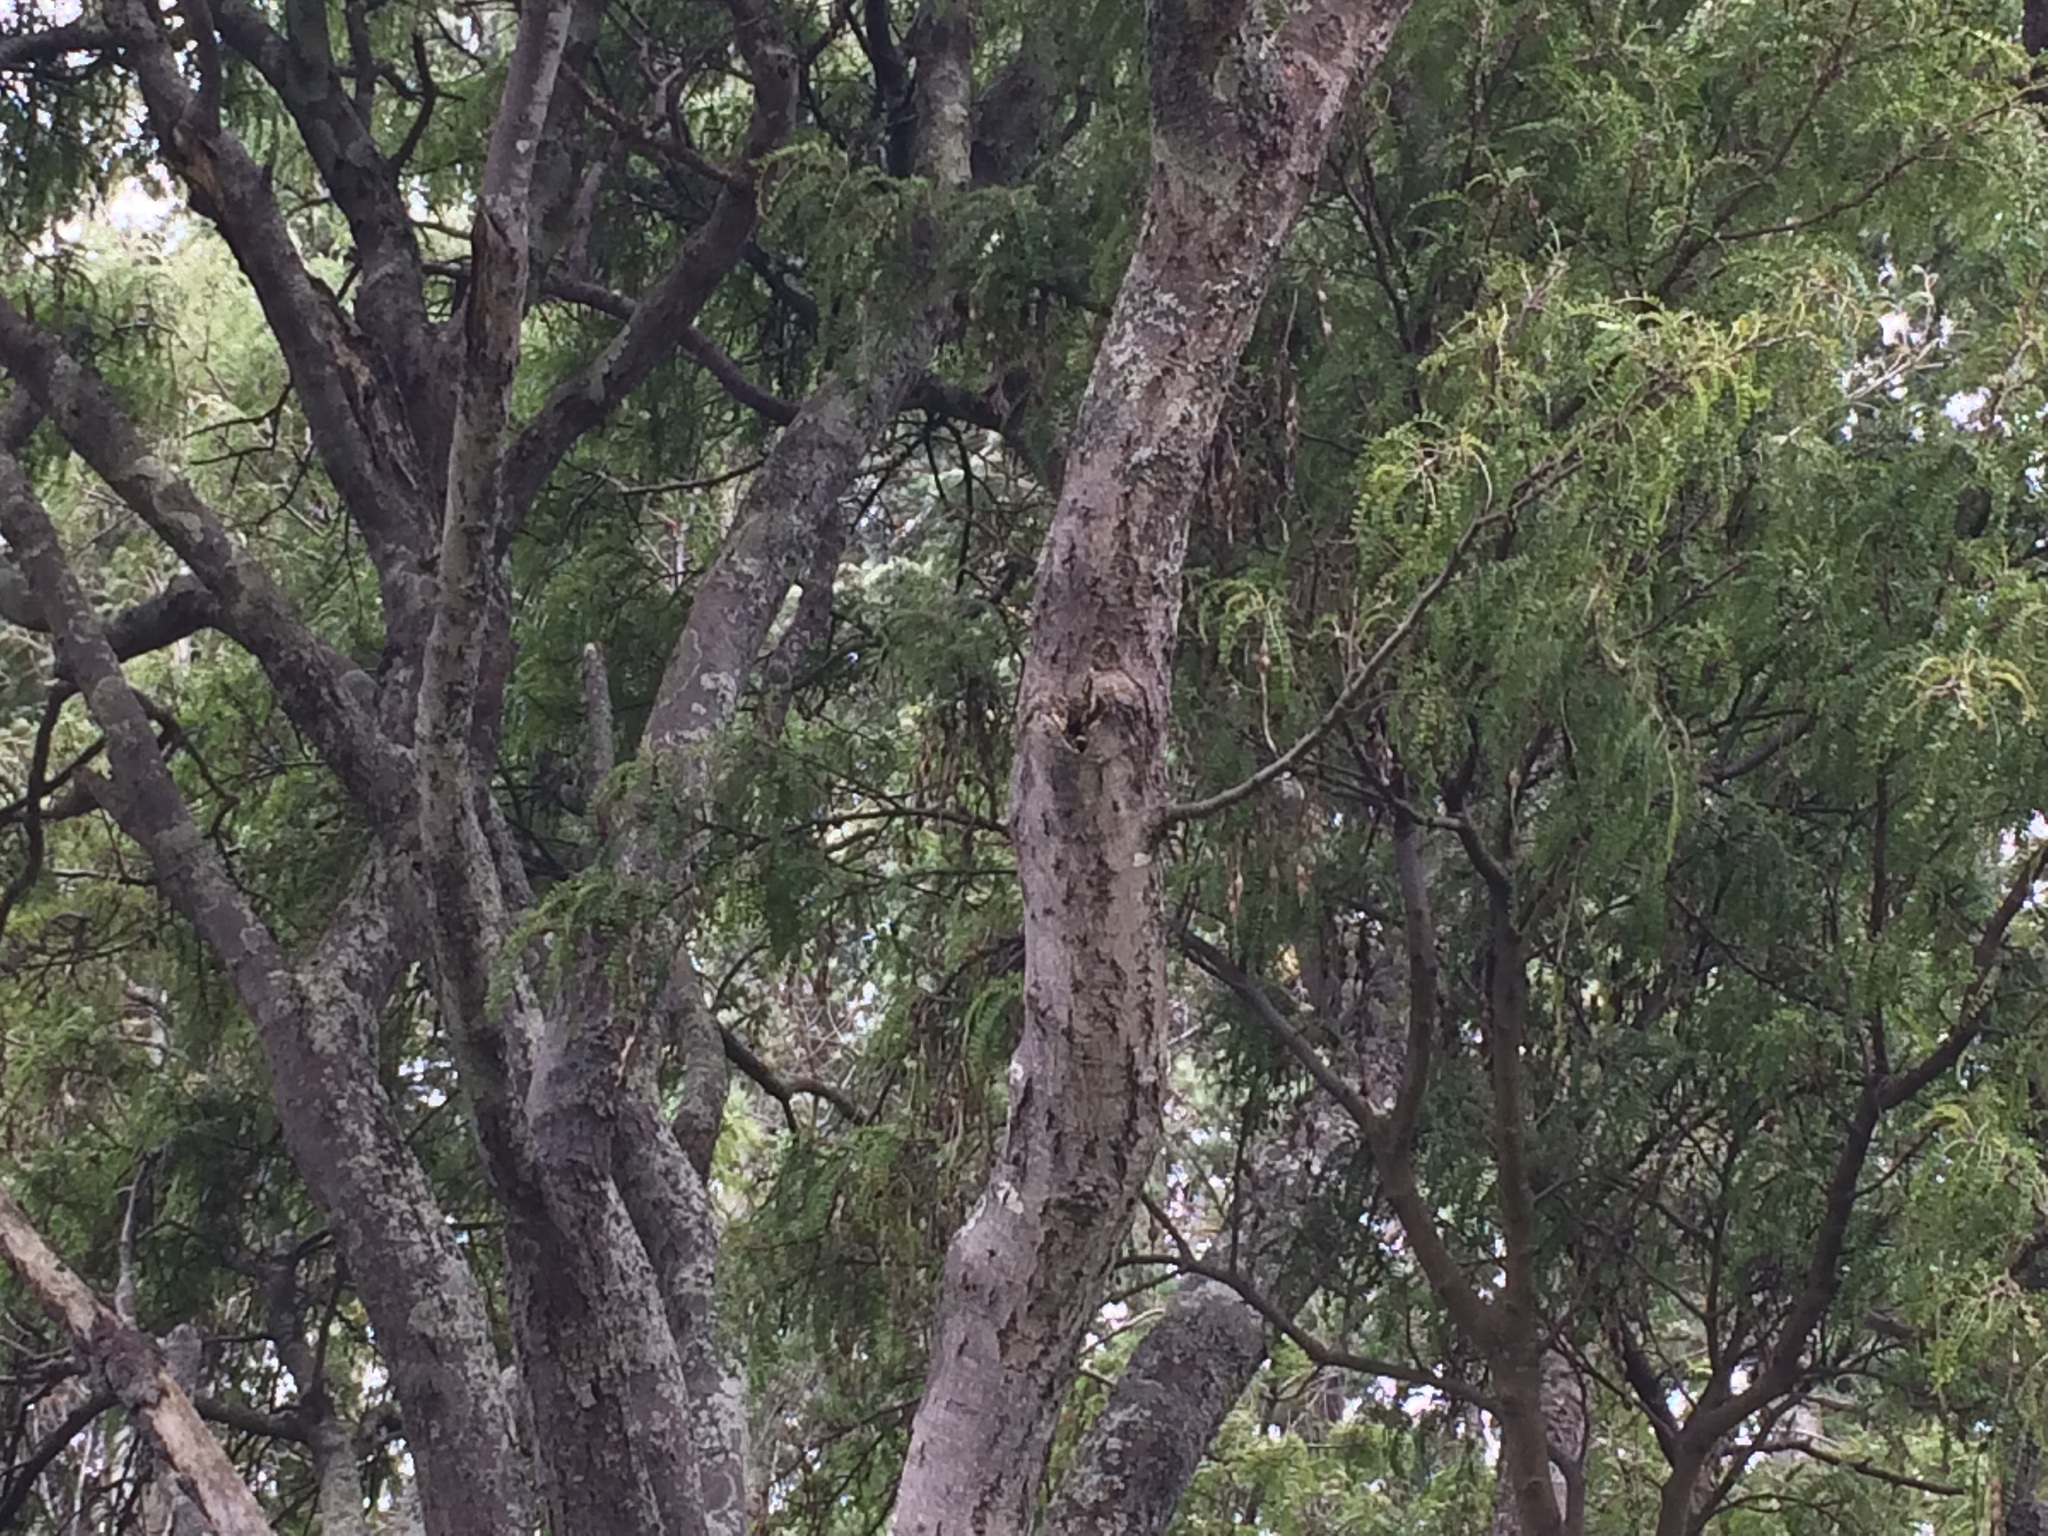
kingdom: Plantae
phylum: Tracheophyta
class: Magnoliopsida
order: Fabales
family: Fabaceae
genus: Sophora
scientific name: Sophora microphylla
